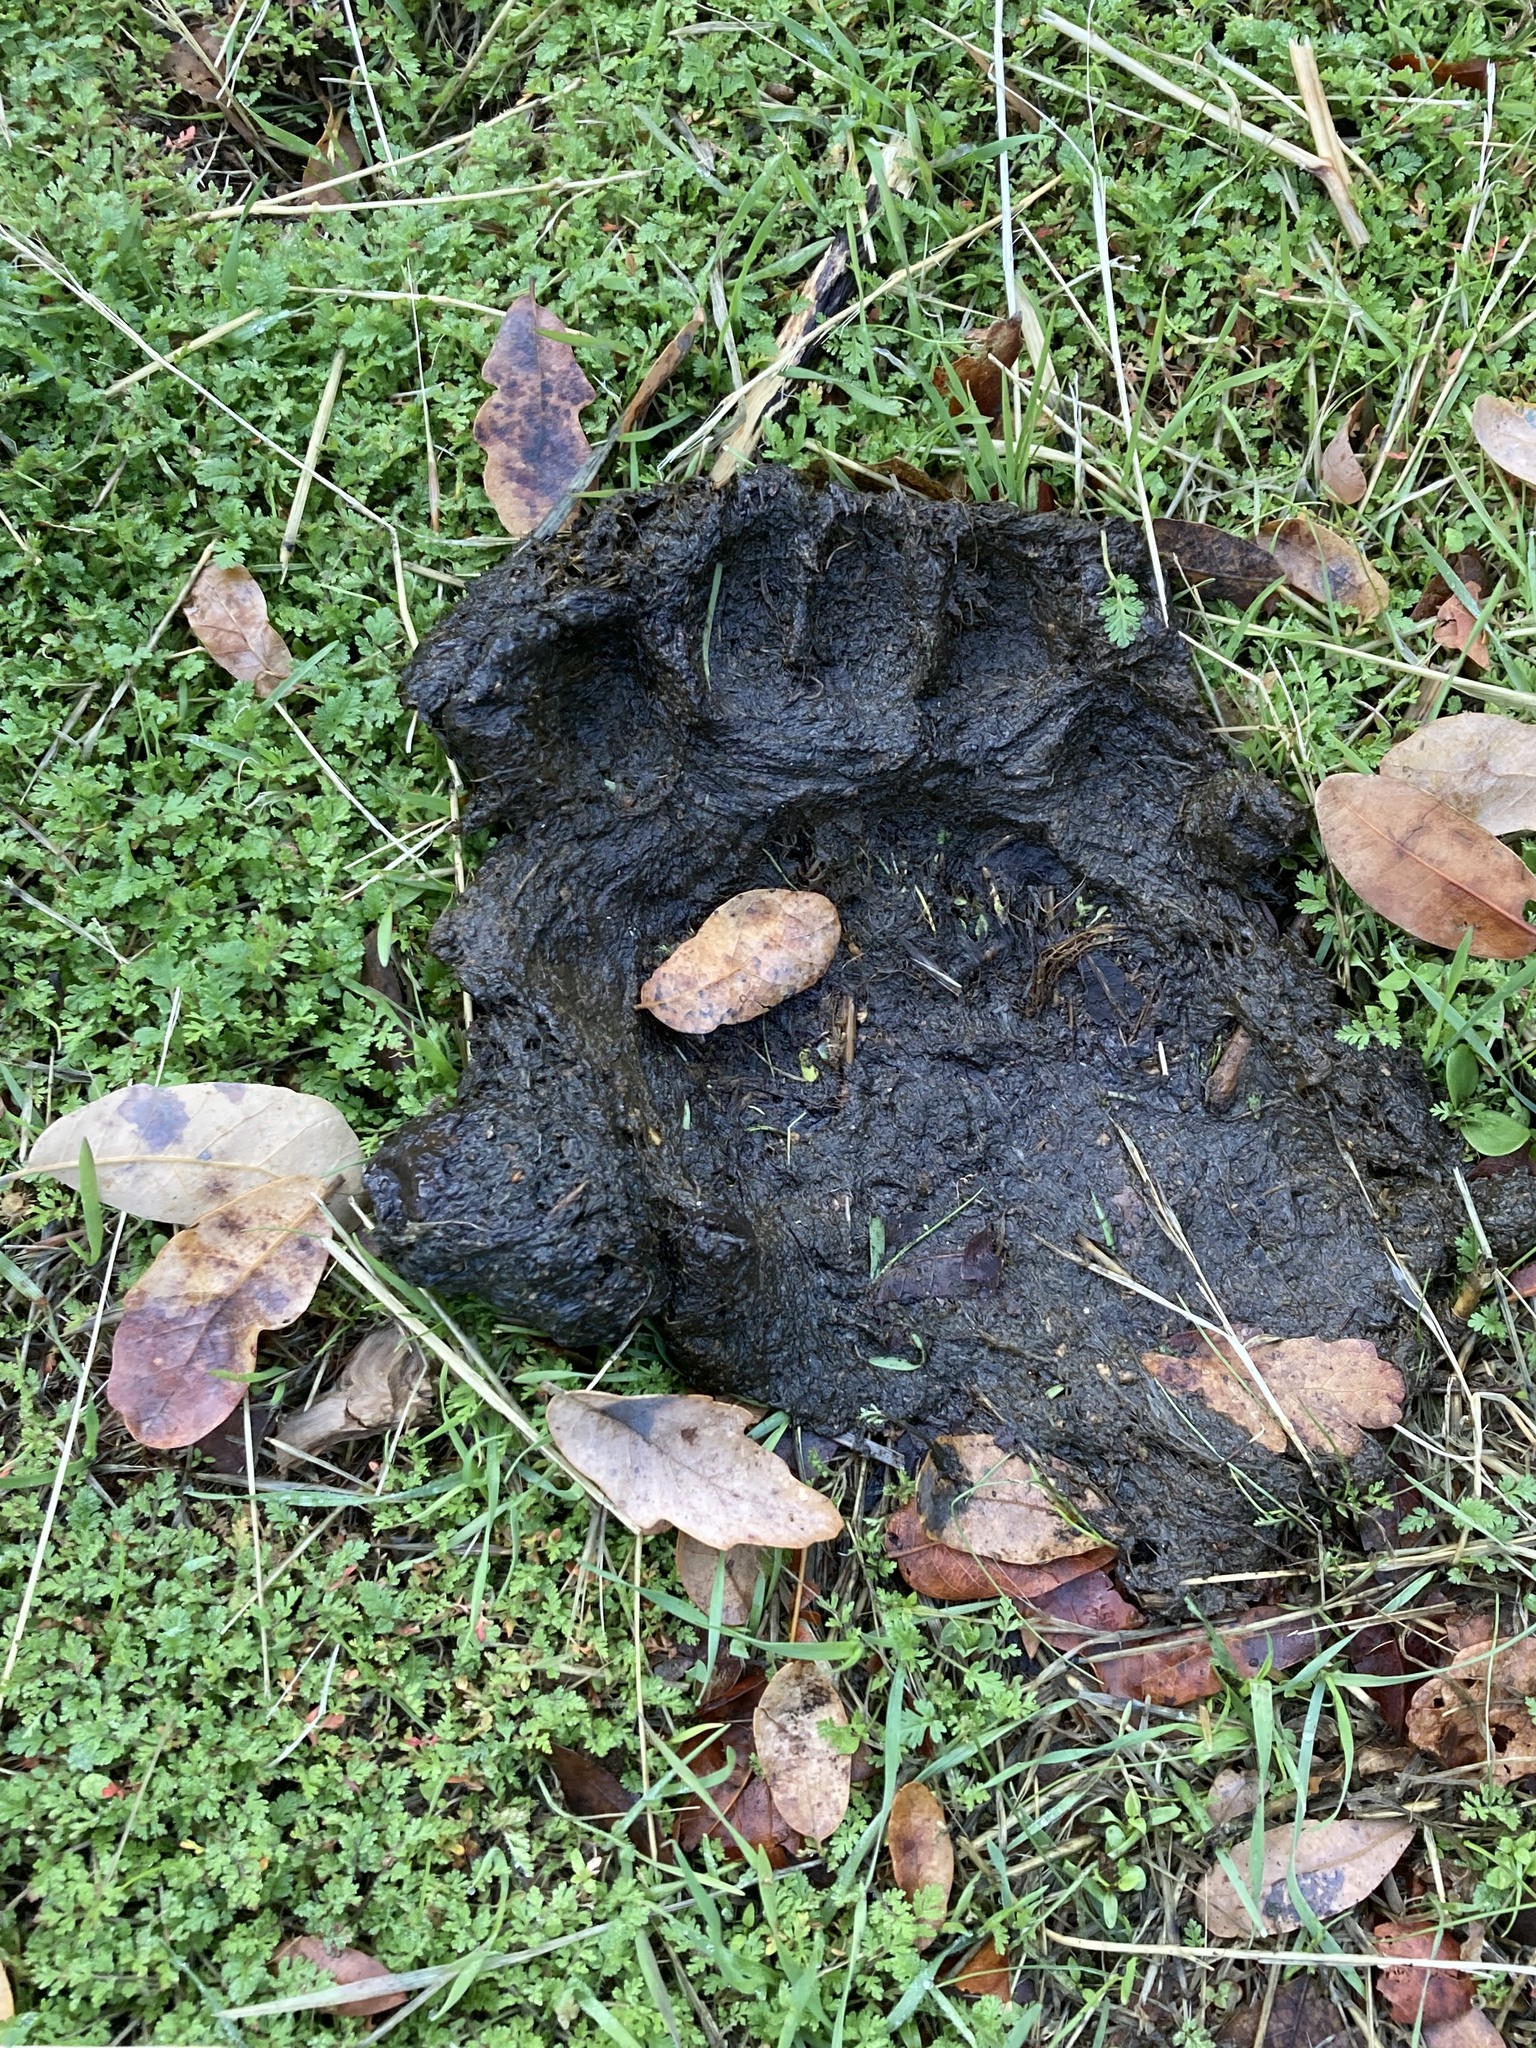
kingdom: Animalia
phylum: Chordata
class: Mammalia
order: Carnivora
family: Ursidae
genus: Ursus
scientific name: Ursus americanus
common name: American black bear
